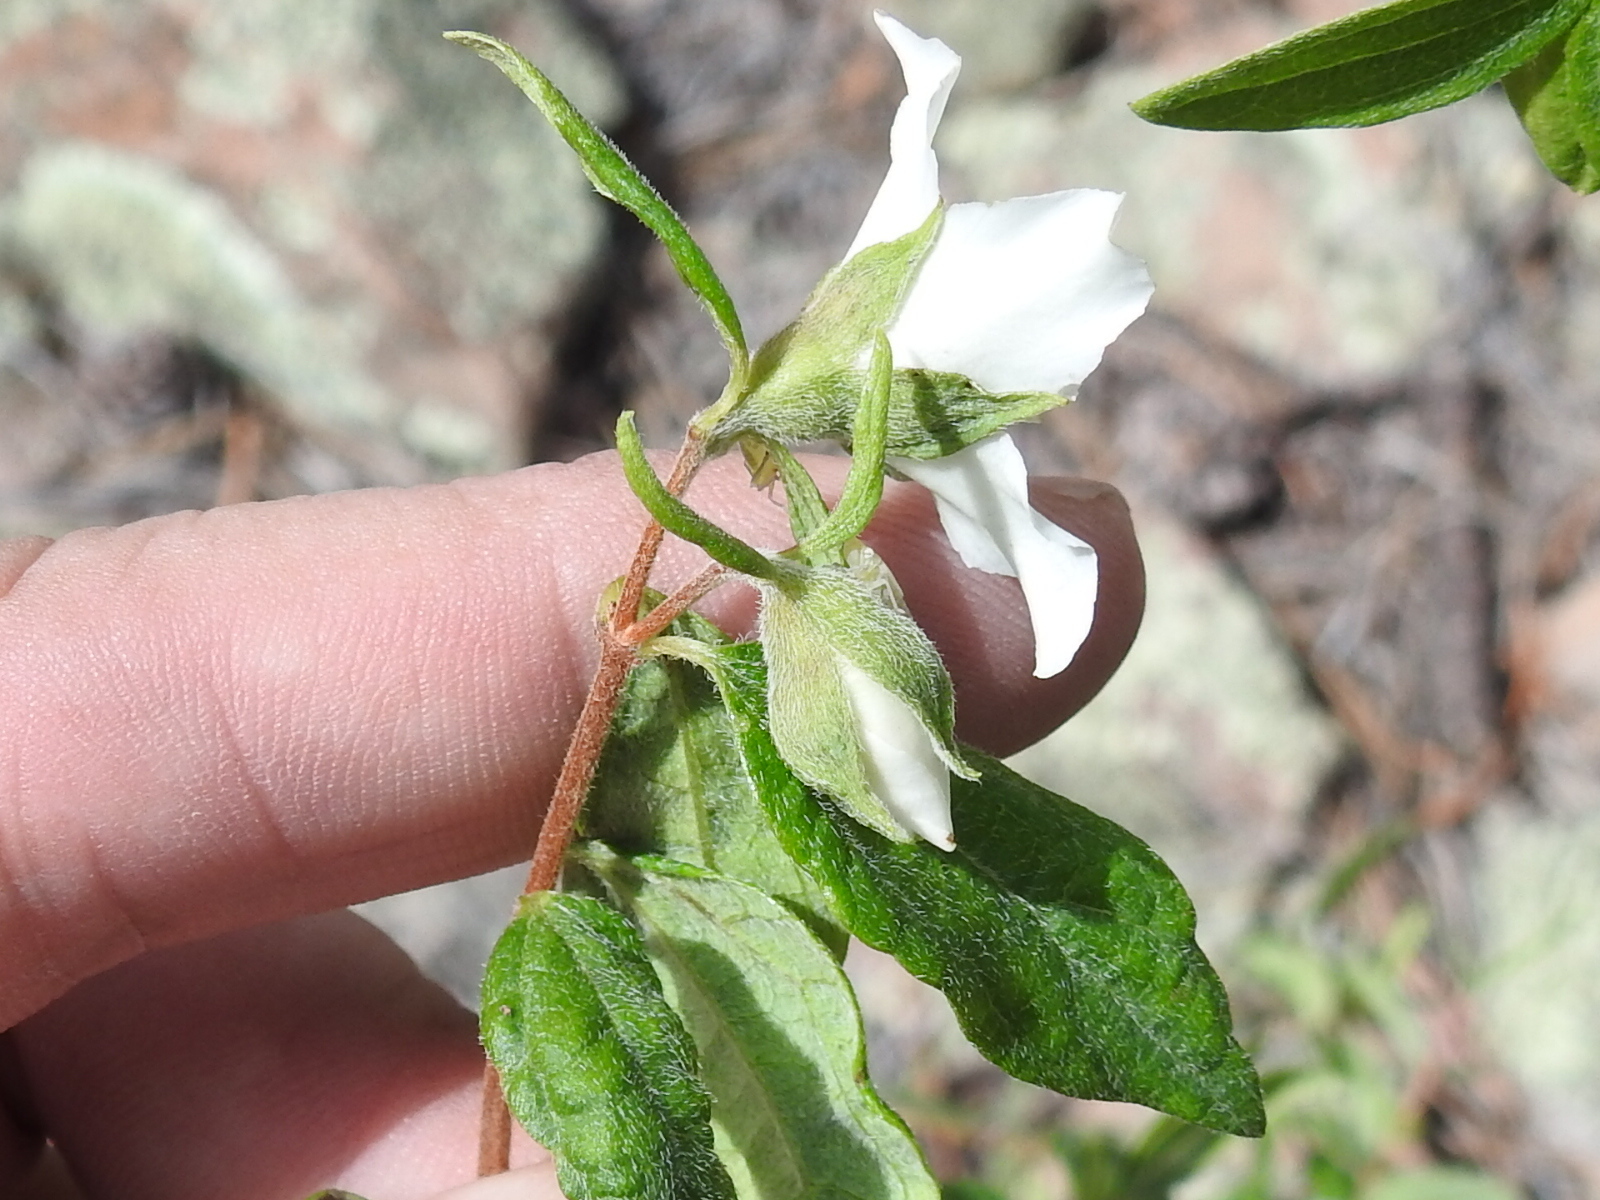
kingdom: Plantae
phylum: Tracheophyta
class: Magnoliopsida
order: Cornales
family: Hydrangeaceae
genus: Philadelphus
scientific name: Philadelphus microphyllus
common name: Desert mock orange
